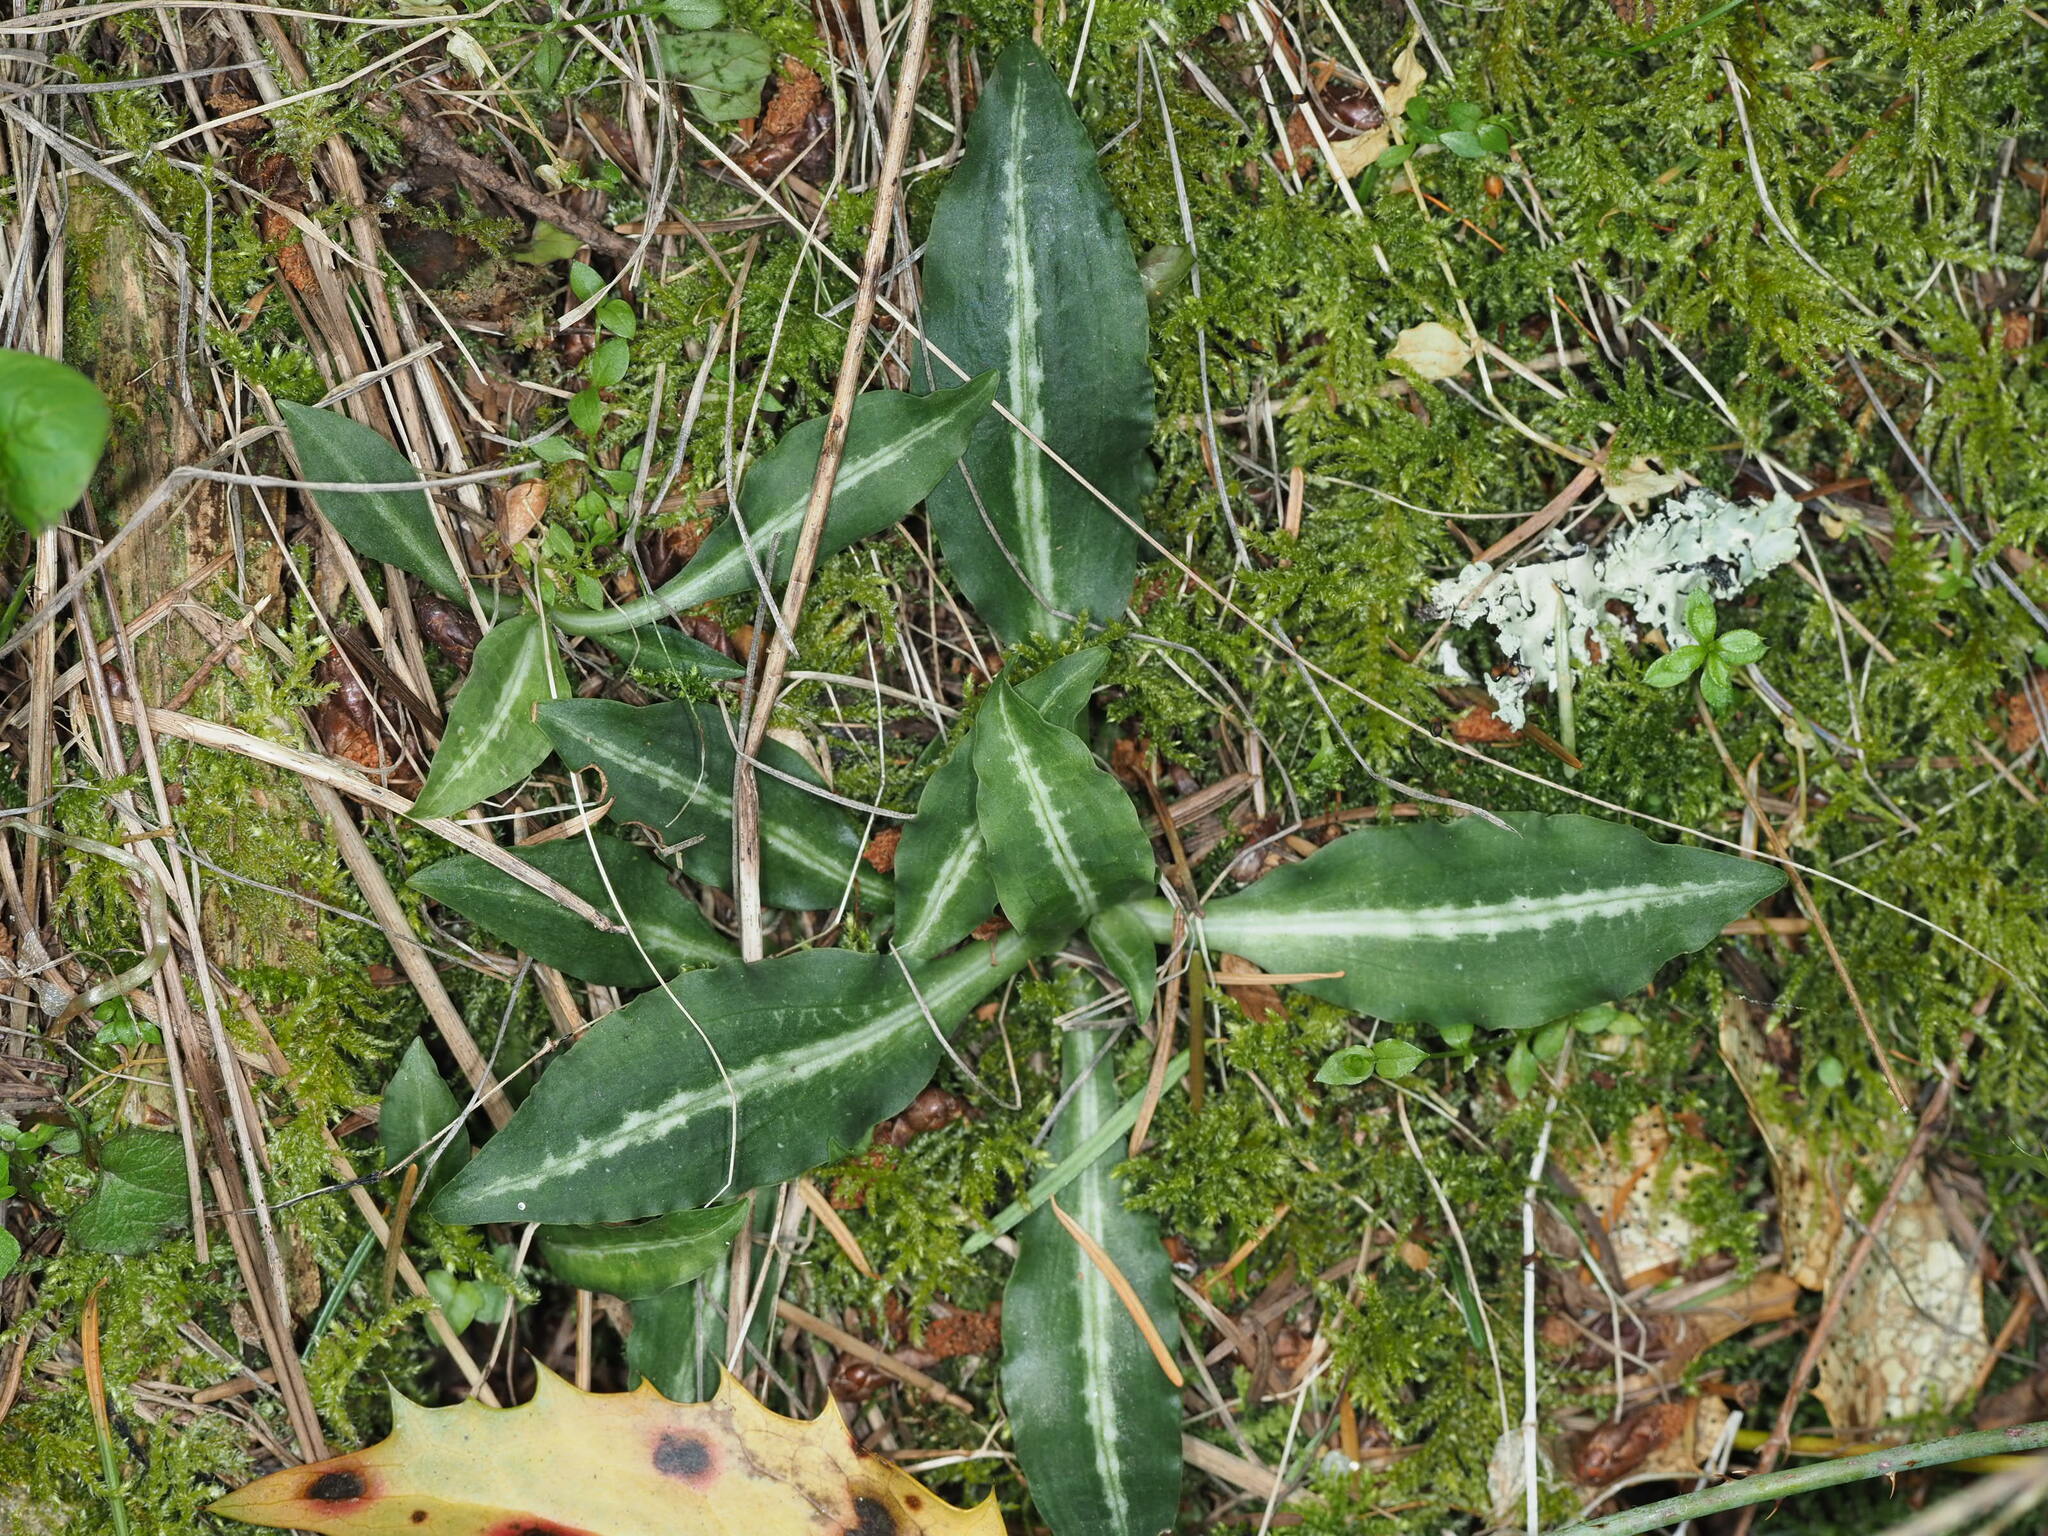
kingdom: Plantae
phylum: Tracheophyta
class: Liliopsida
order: Asparagales
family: Orchidaceae
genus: Goodyera
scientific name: Goodyera oblongifolia
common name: Giant rattlesnake-plantain
